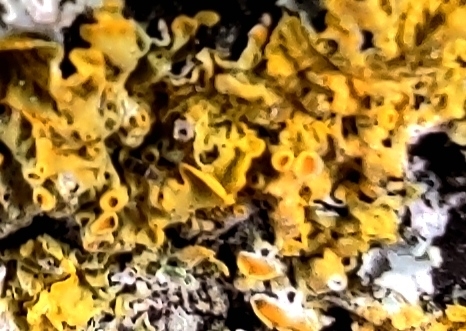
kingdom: Fungi
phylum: Ascomycota
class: Lecanoromycetes
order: Teloschistales
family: Teloschistaceae
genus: Xanthoria
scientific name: Xanthoria parietina
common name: Common orange lichen
